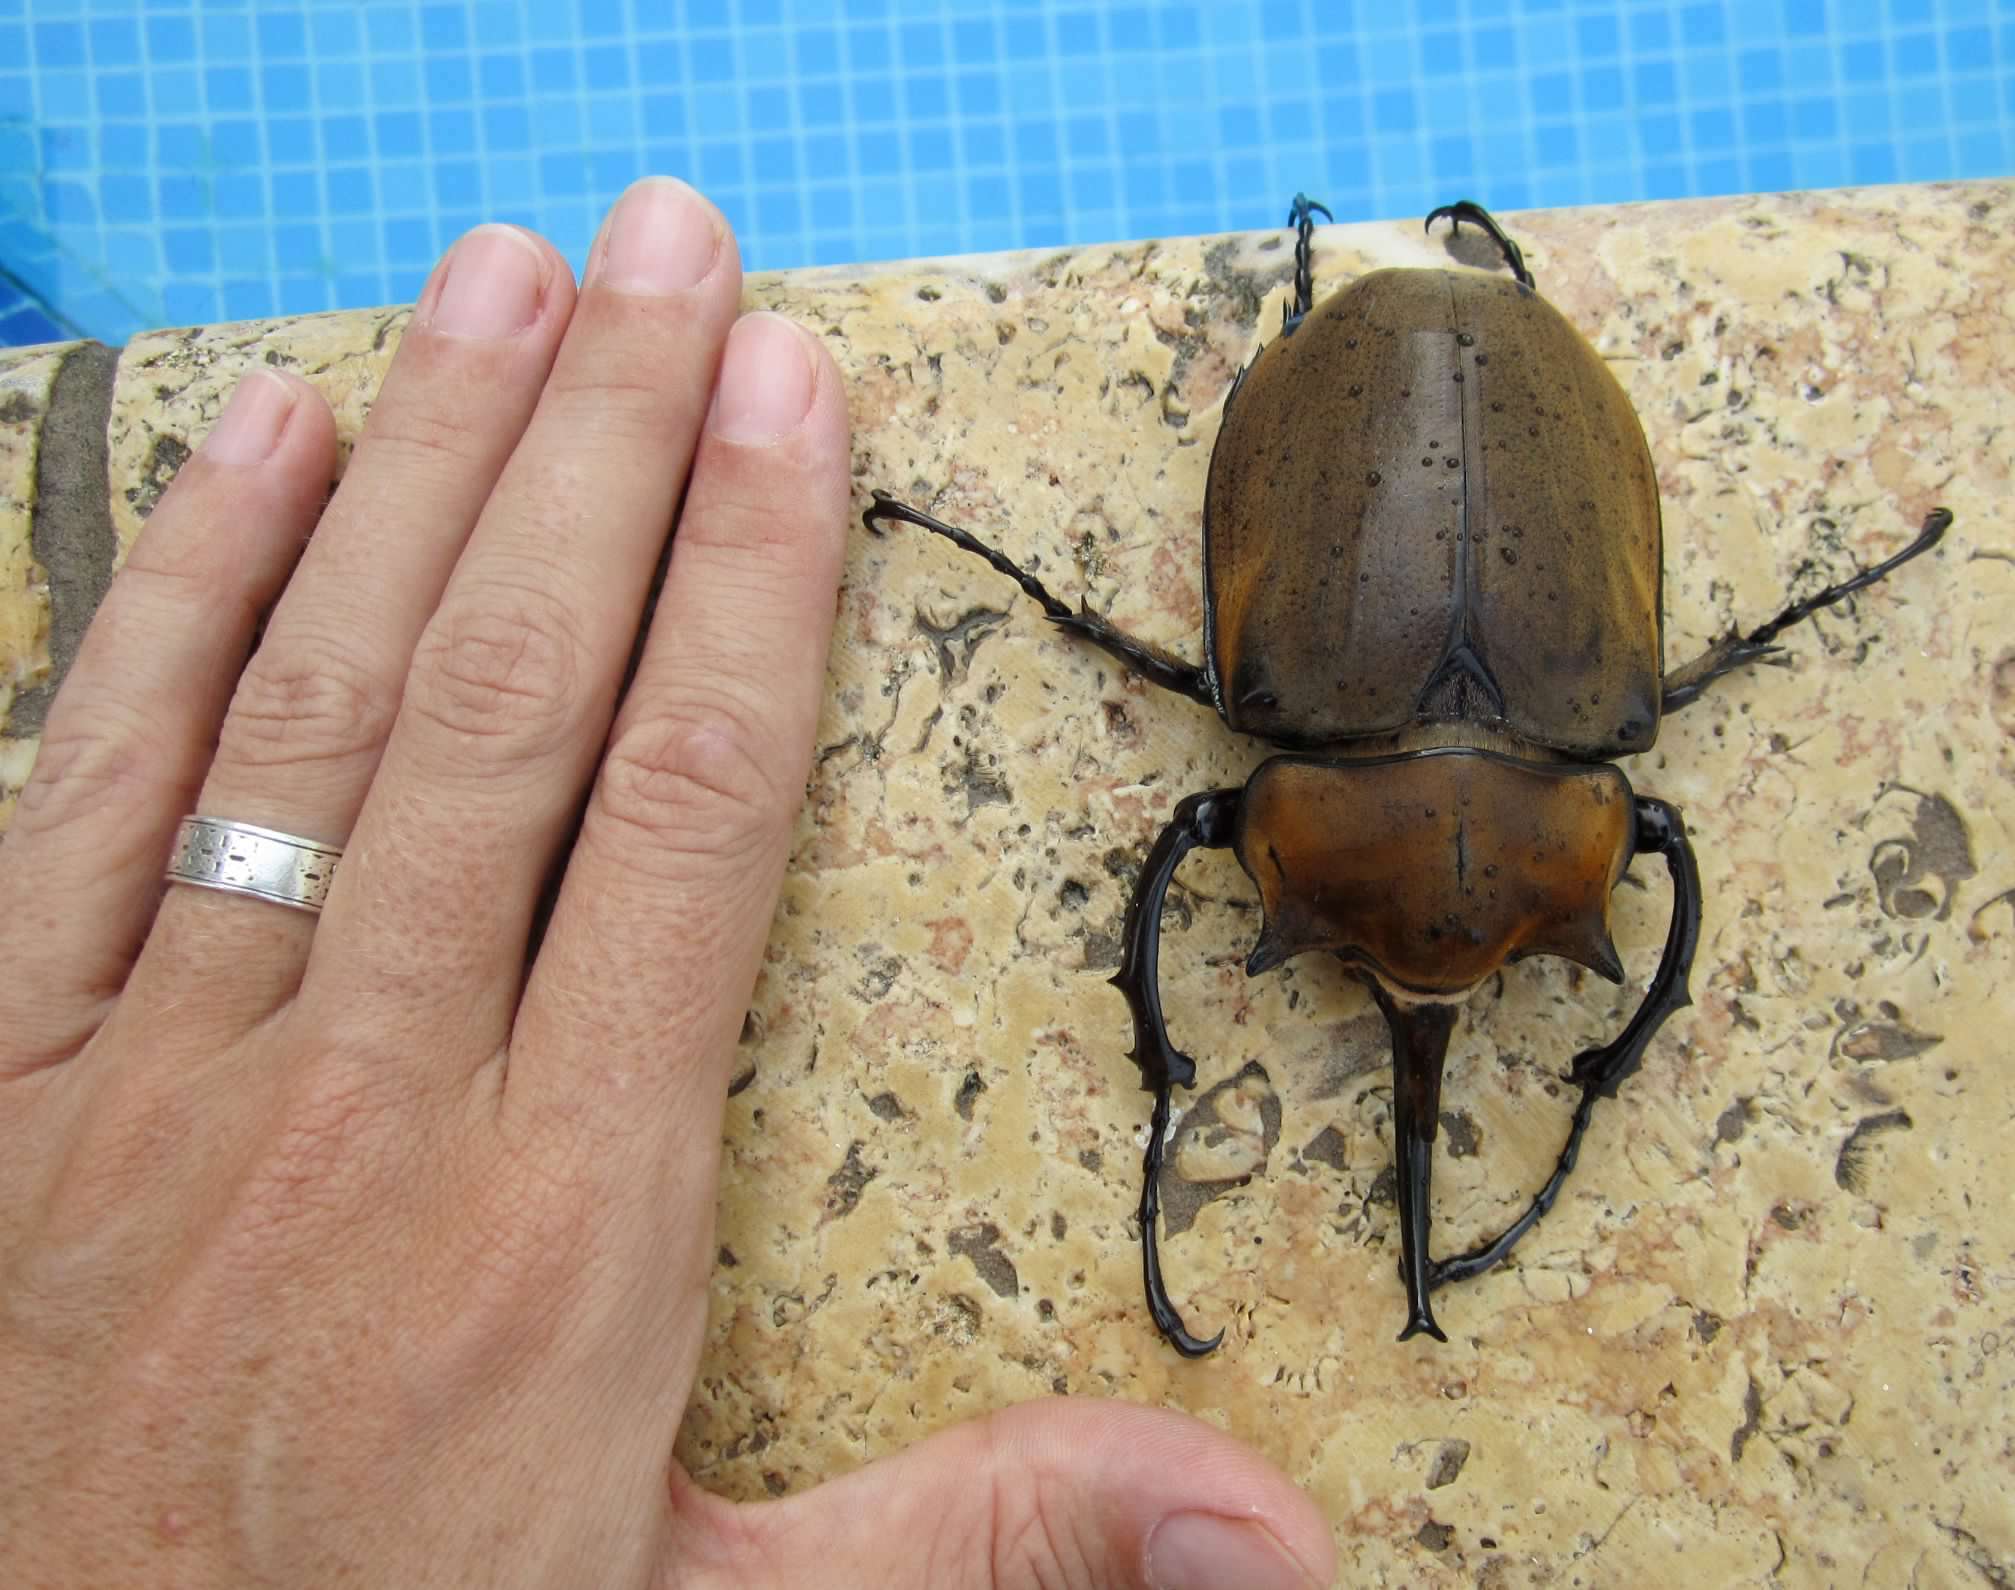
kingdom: Animalia
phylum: Arthropoda
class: Insecta
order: Coleoptera
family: Scarabaeidae
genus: Megasoma
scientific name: Megasoma elephas
